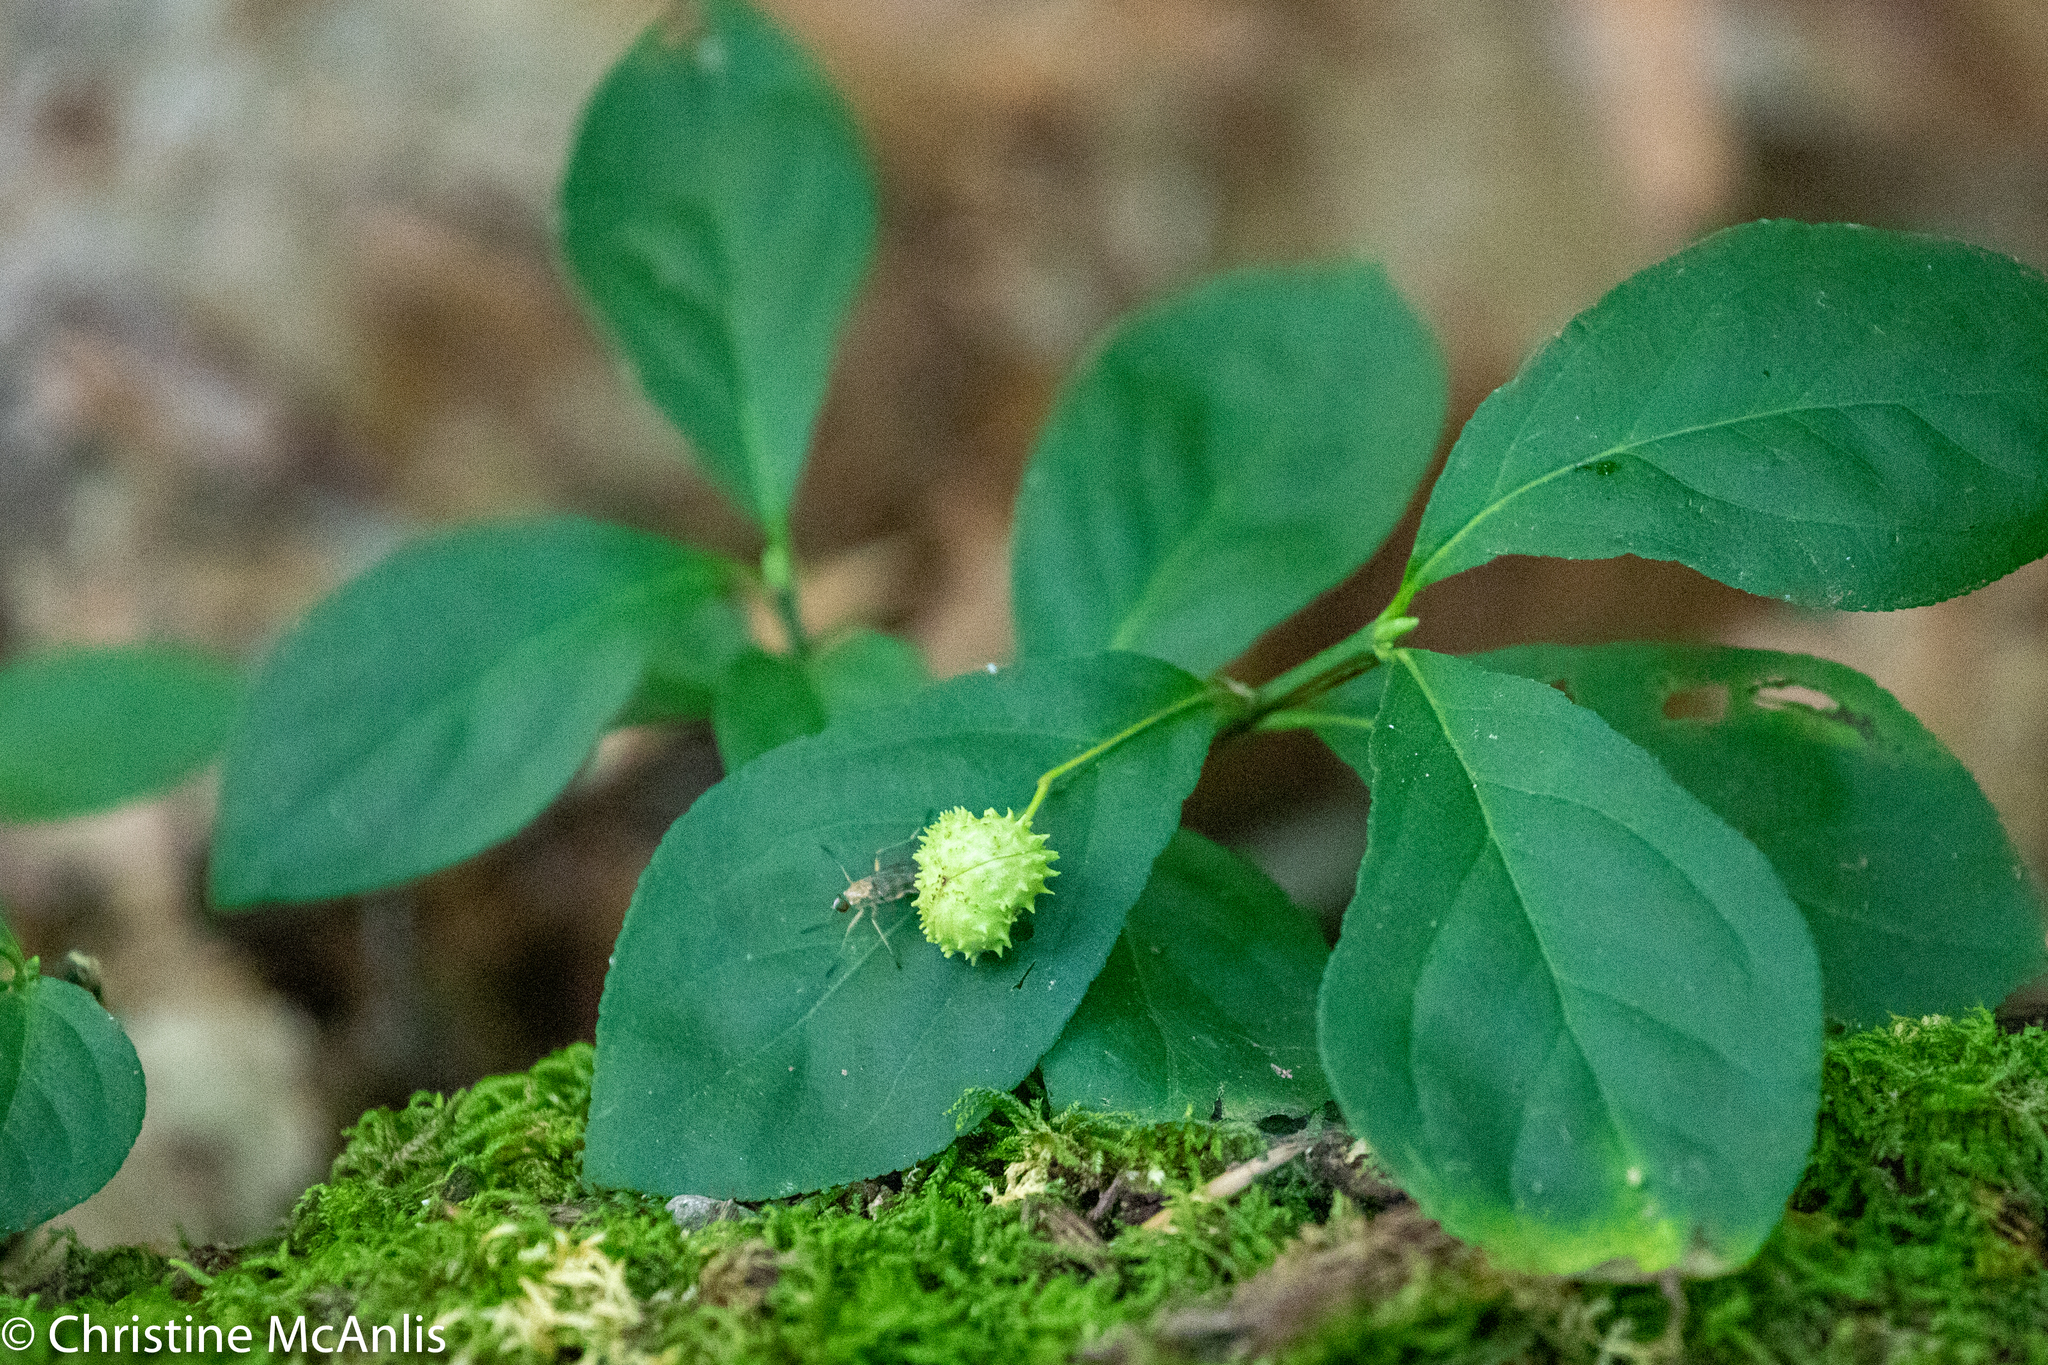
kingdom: Plantae
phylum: Tracheophyta
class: Magnoliopsida
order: Celastrales
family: Celastraceae
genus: Euonymus
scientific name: Euonymus obovatus
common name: Running strawberry-bush
